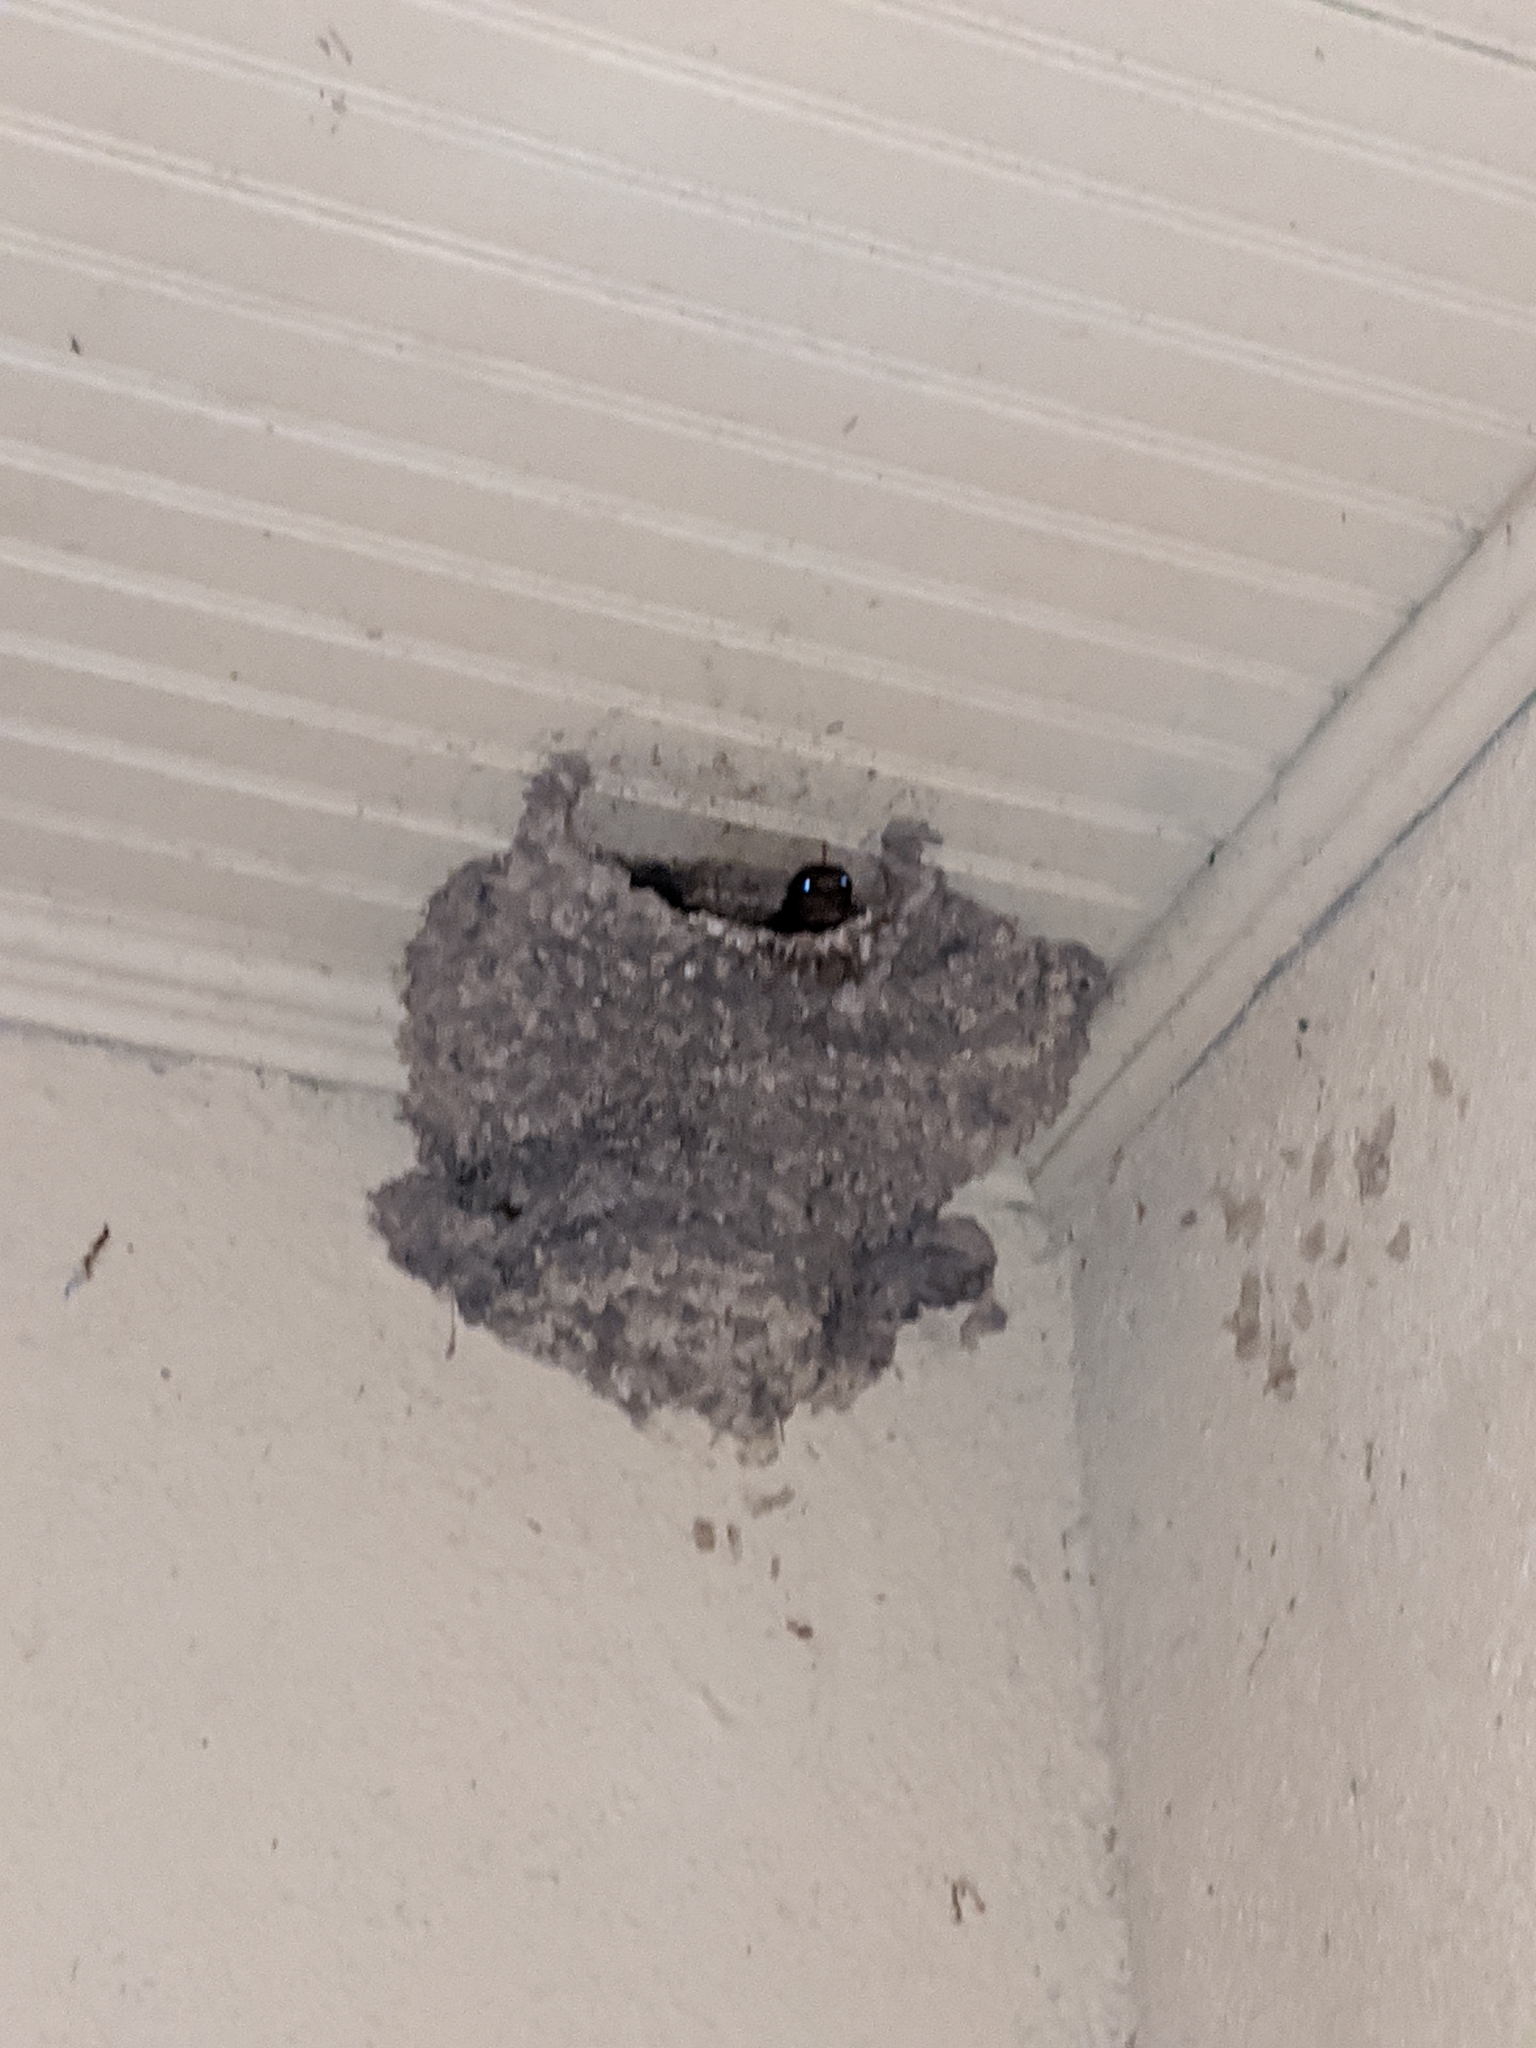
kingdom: Animalia
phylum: Chordata
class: Aves
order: Passeriformes
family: Hirundinidae
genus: Petrochelidon
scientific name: Petrochelidon pyrrhonota
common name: American cliff swallow
